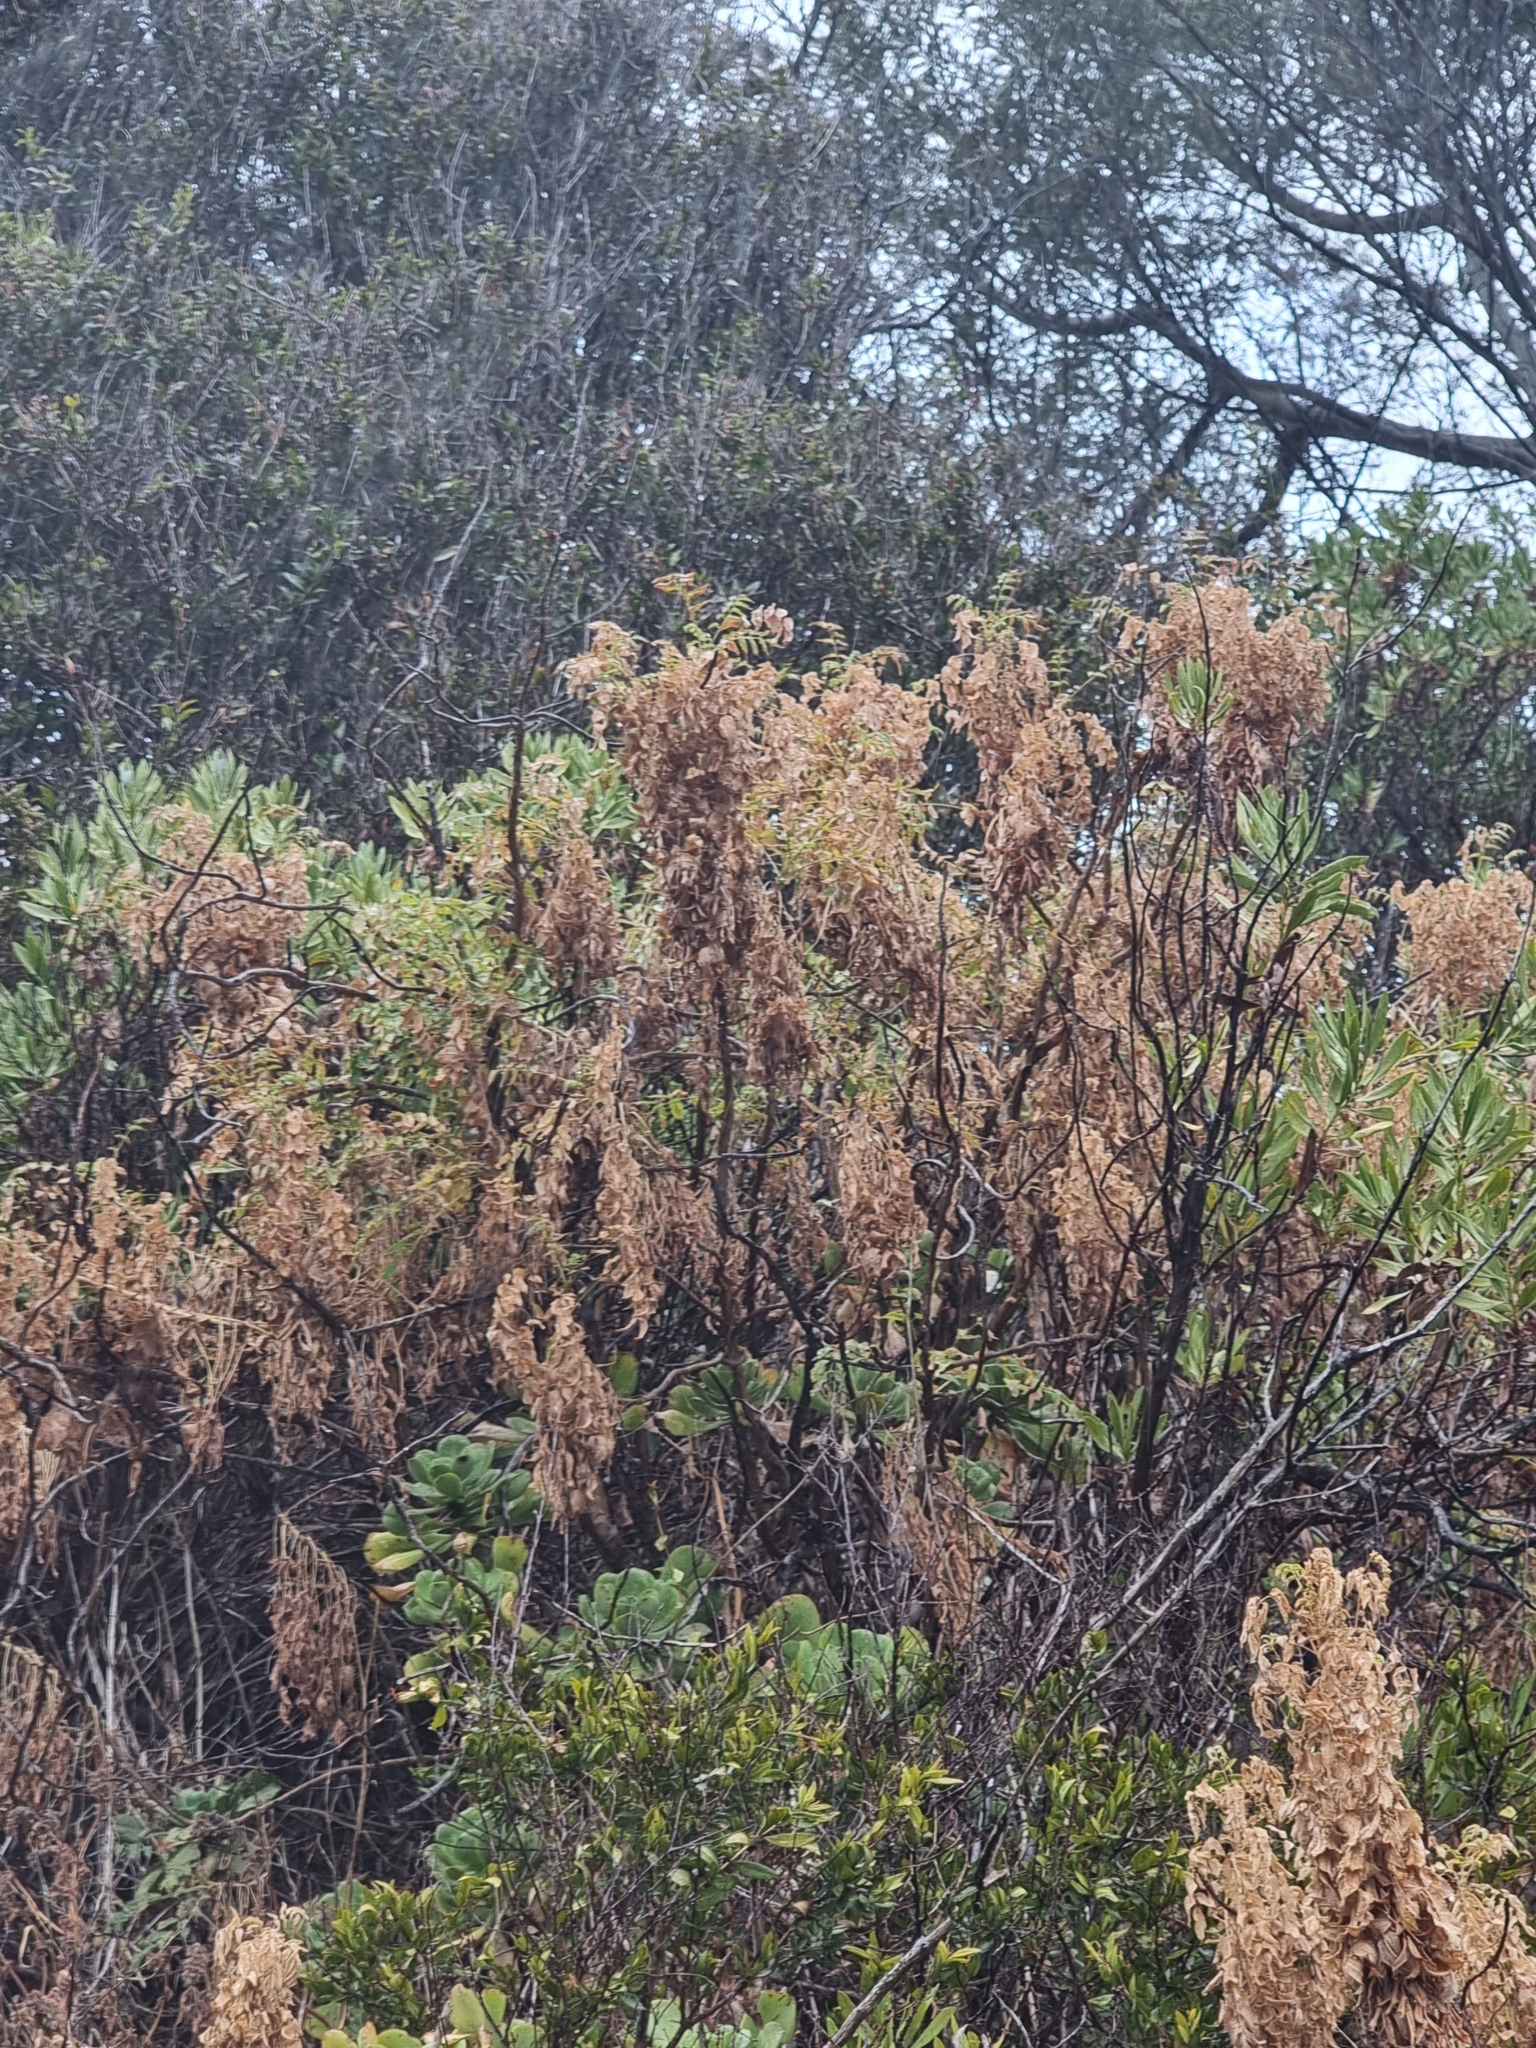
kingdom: Plantae
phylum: Tracheophyta
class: Magnoliopsida
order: Rosales
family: Rosaceae
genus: Marcetella
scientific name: Marcetella maderensis
